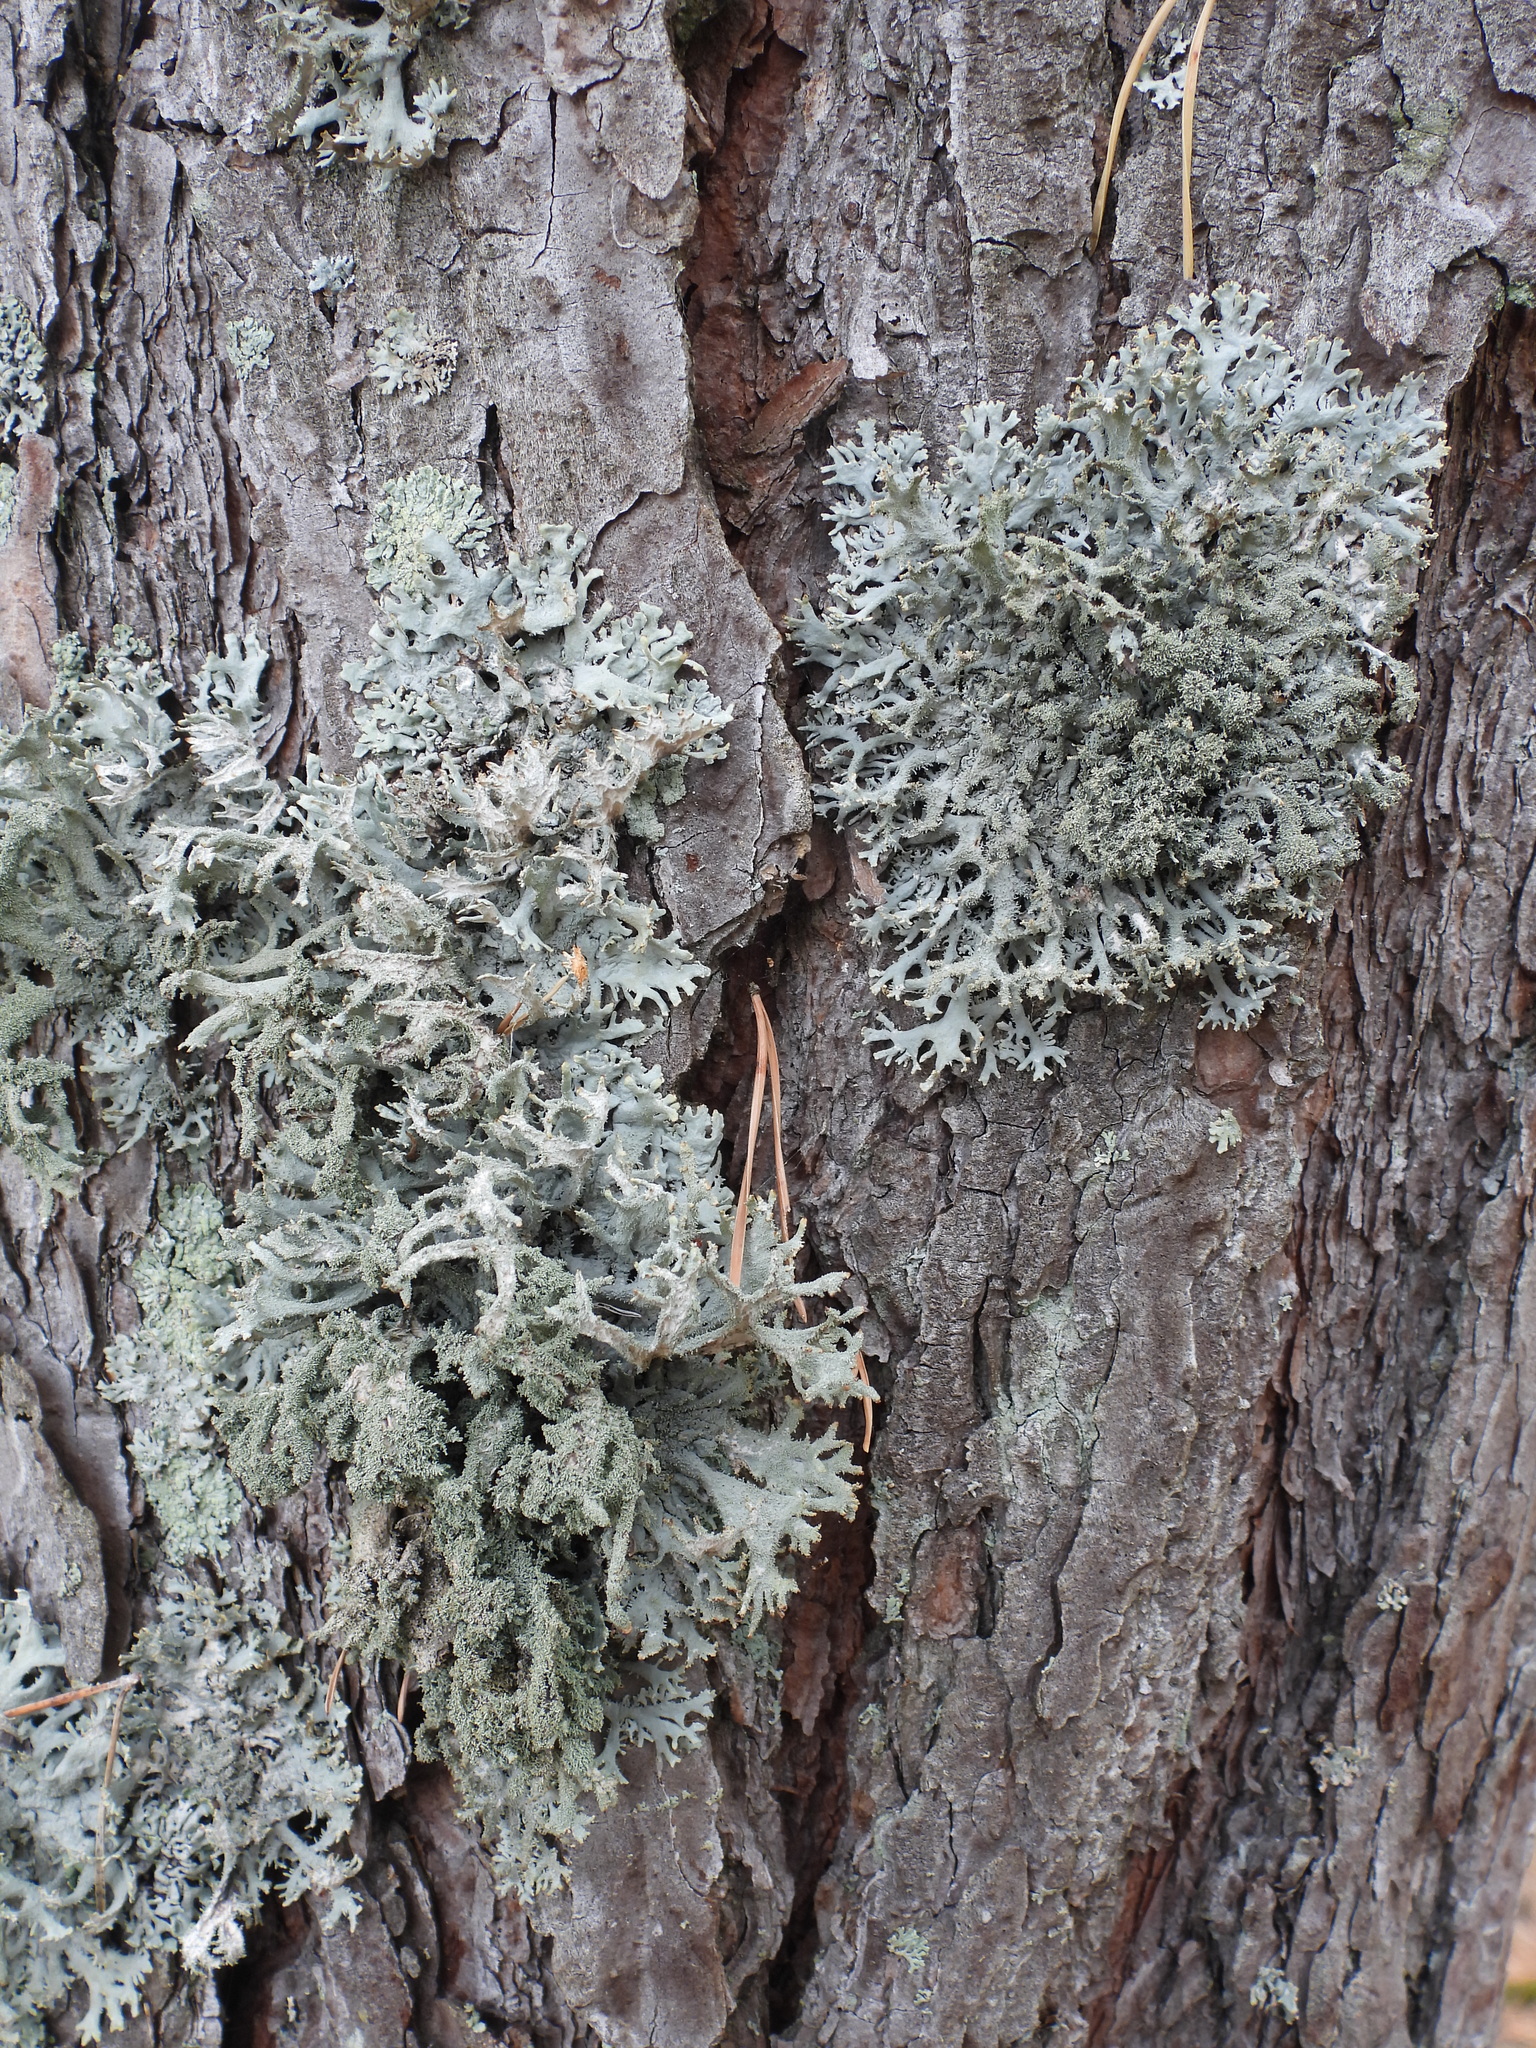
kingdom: Fungi
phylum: Ascomycota
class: Lecanoromycetes
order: Lecanorales
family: Parmeliaceae
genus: Pseudevernia
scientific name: Pseudevernia furfuracea
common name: Tree moss
